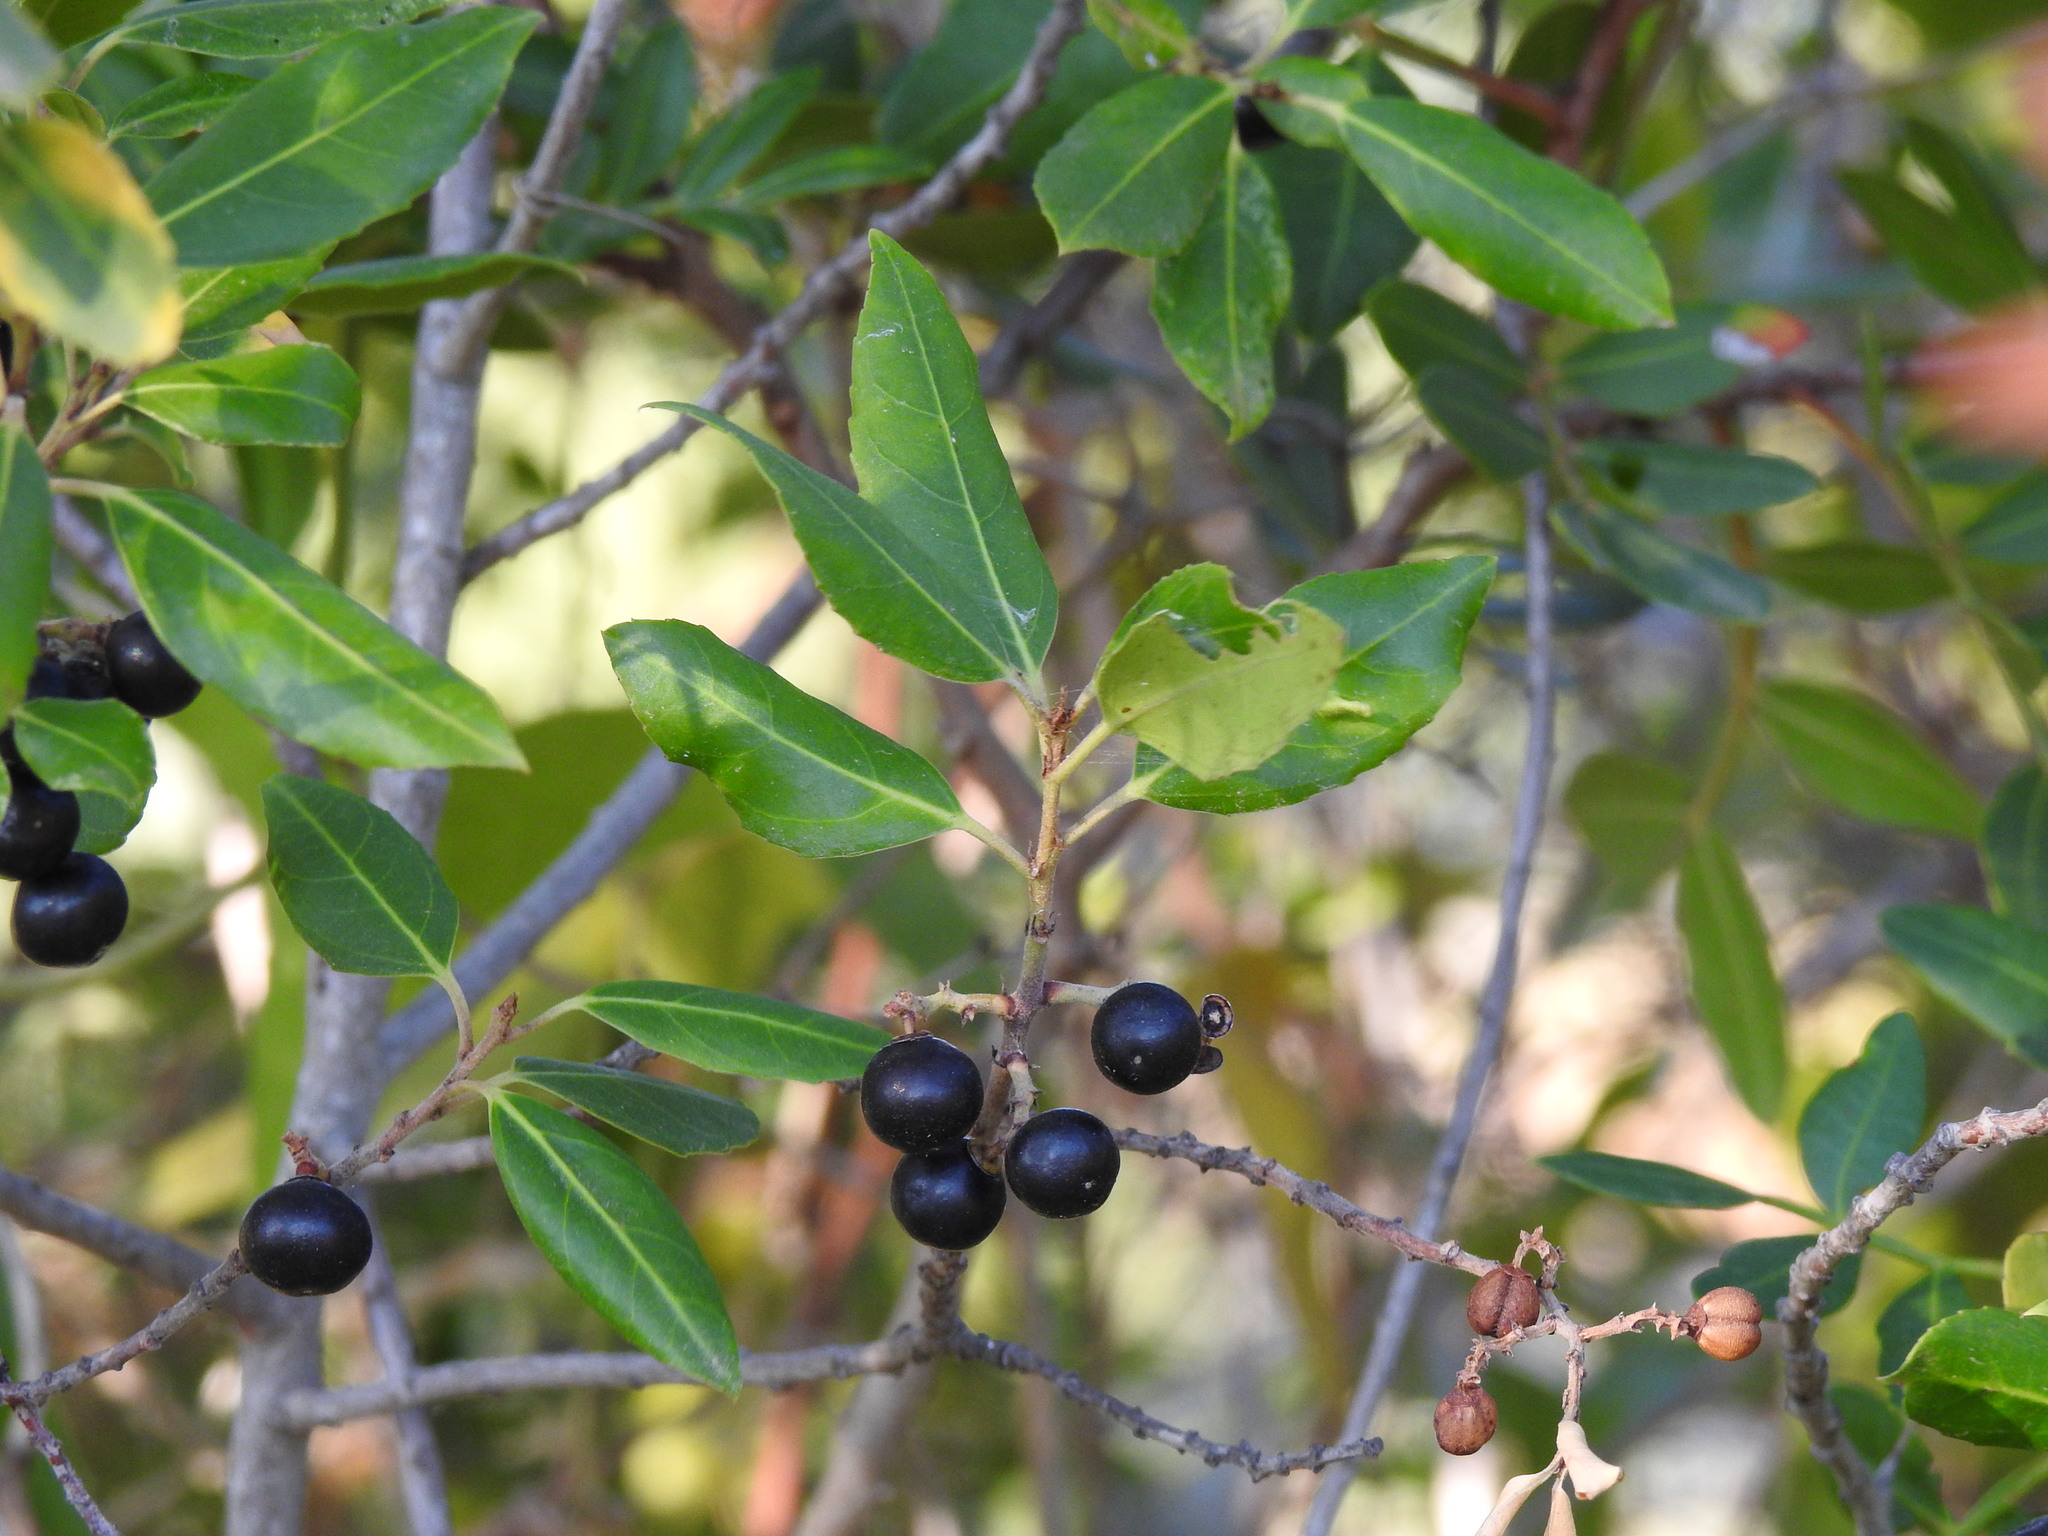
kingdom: Plantae
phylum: Tracheophyta
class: Magnoliopsida
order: Rosales
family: Rhamnaceae
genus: Rhamnus
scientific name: Rhamnus alaternus
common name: Mediterranean buckthorn
